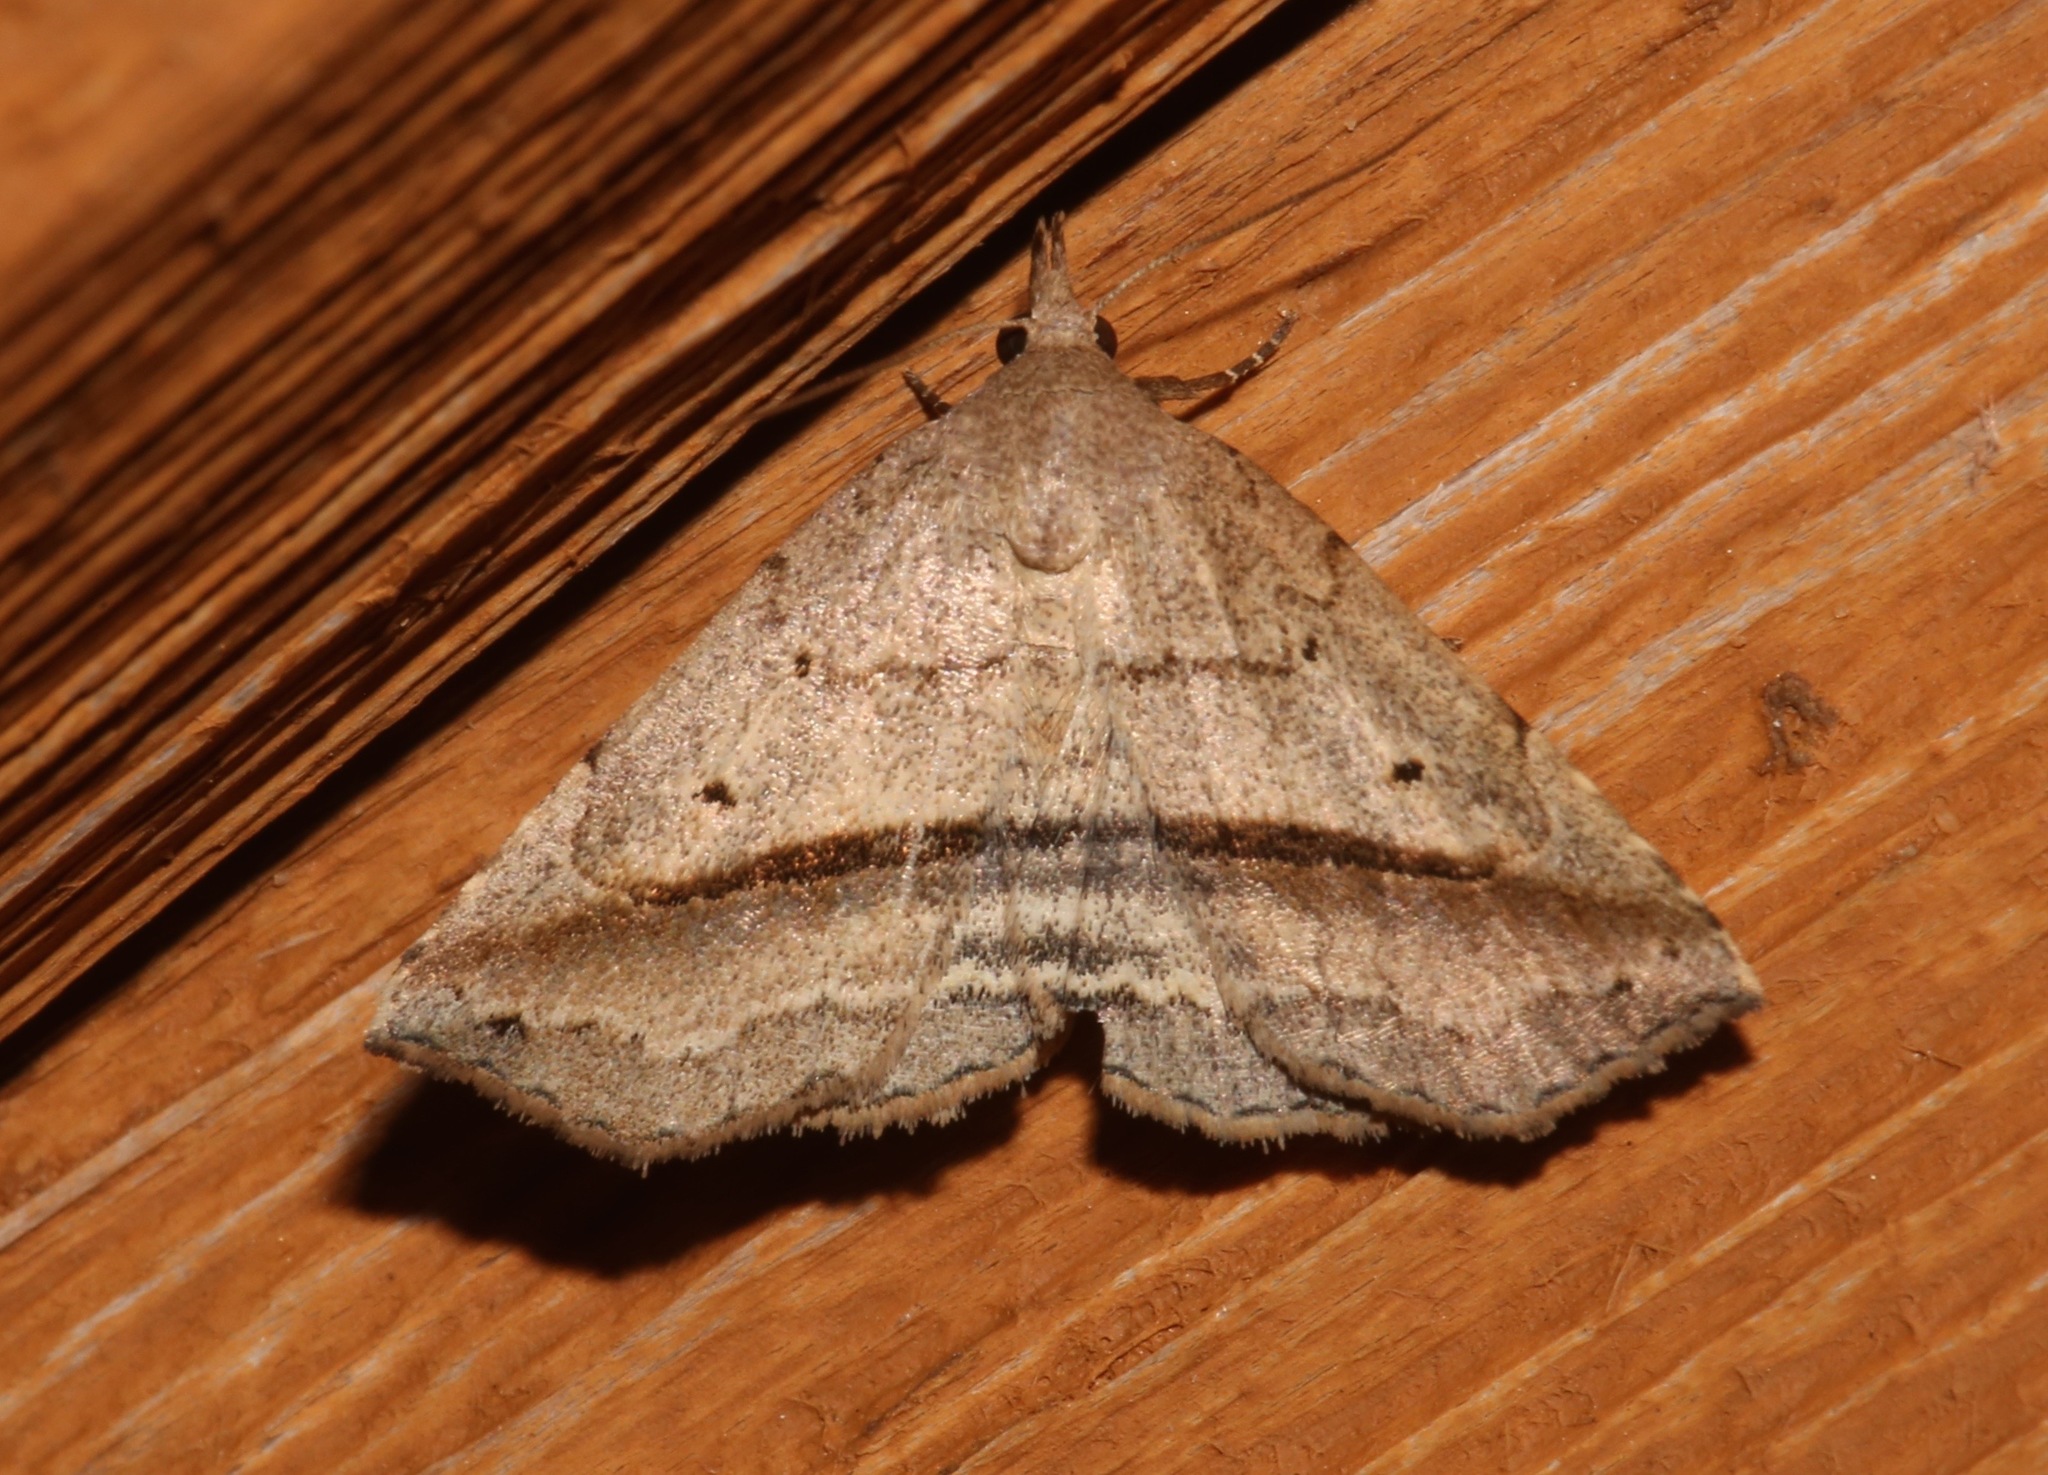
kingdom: Animalia
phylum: Arthropoda
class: Insecta
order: Lepidoptera
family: Erebidae
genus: Spargaloma
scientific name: Spargaloma perditalis
